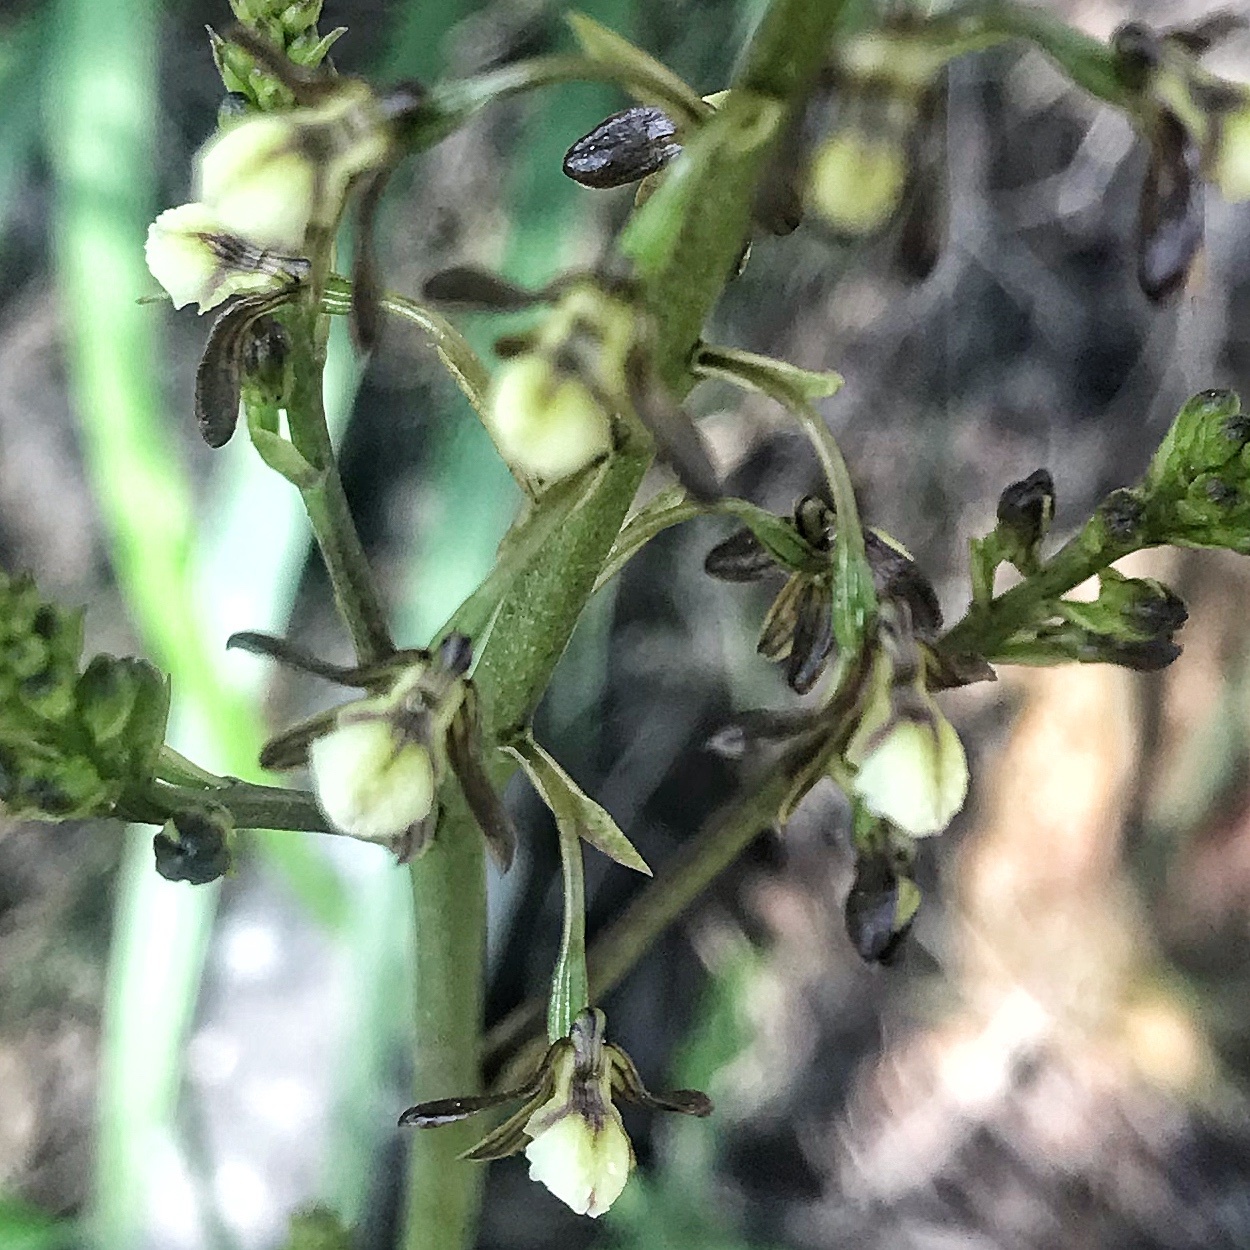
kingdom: Plantae
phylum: Tracheophyta
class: Liliopsida
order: Asparagales
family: Orchidaceae
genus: Eulophia
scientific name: Eulophia cochlearis
